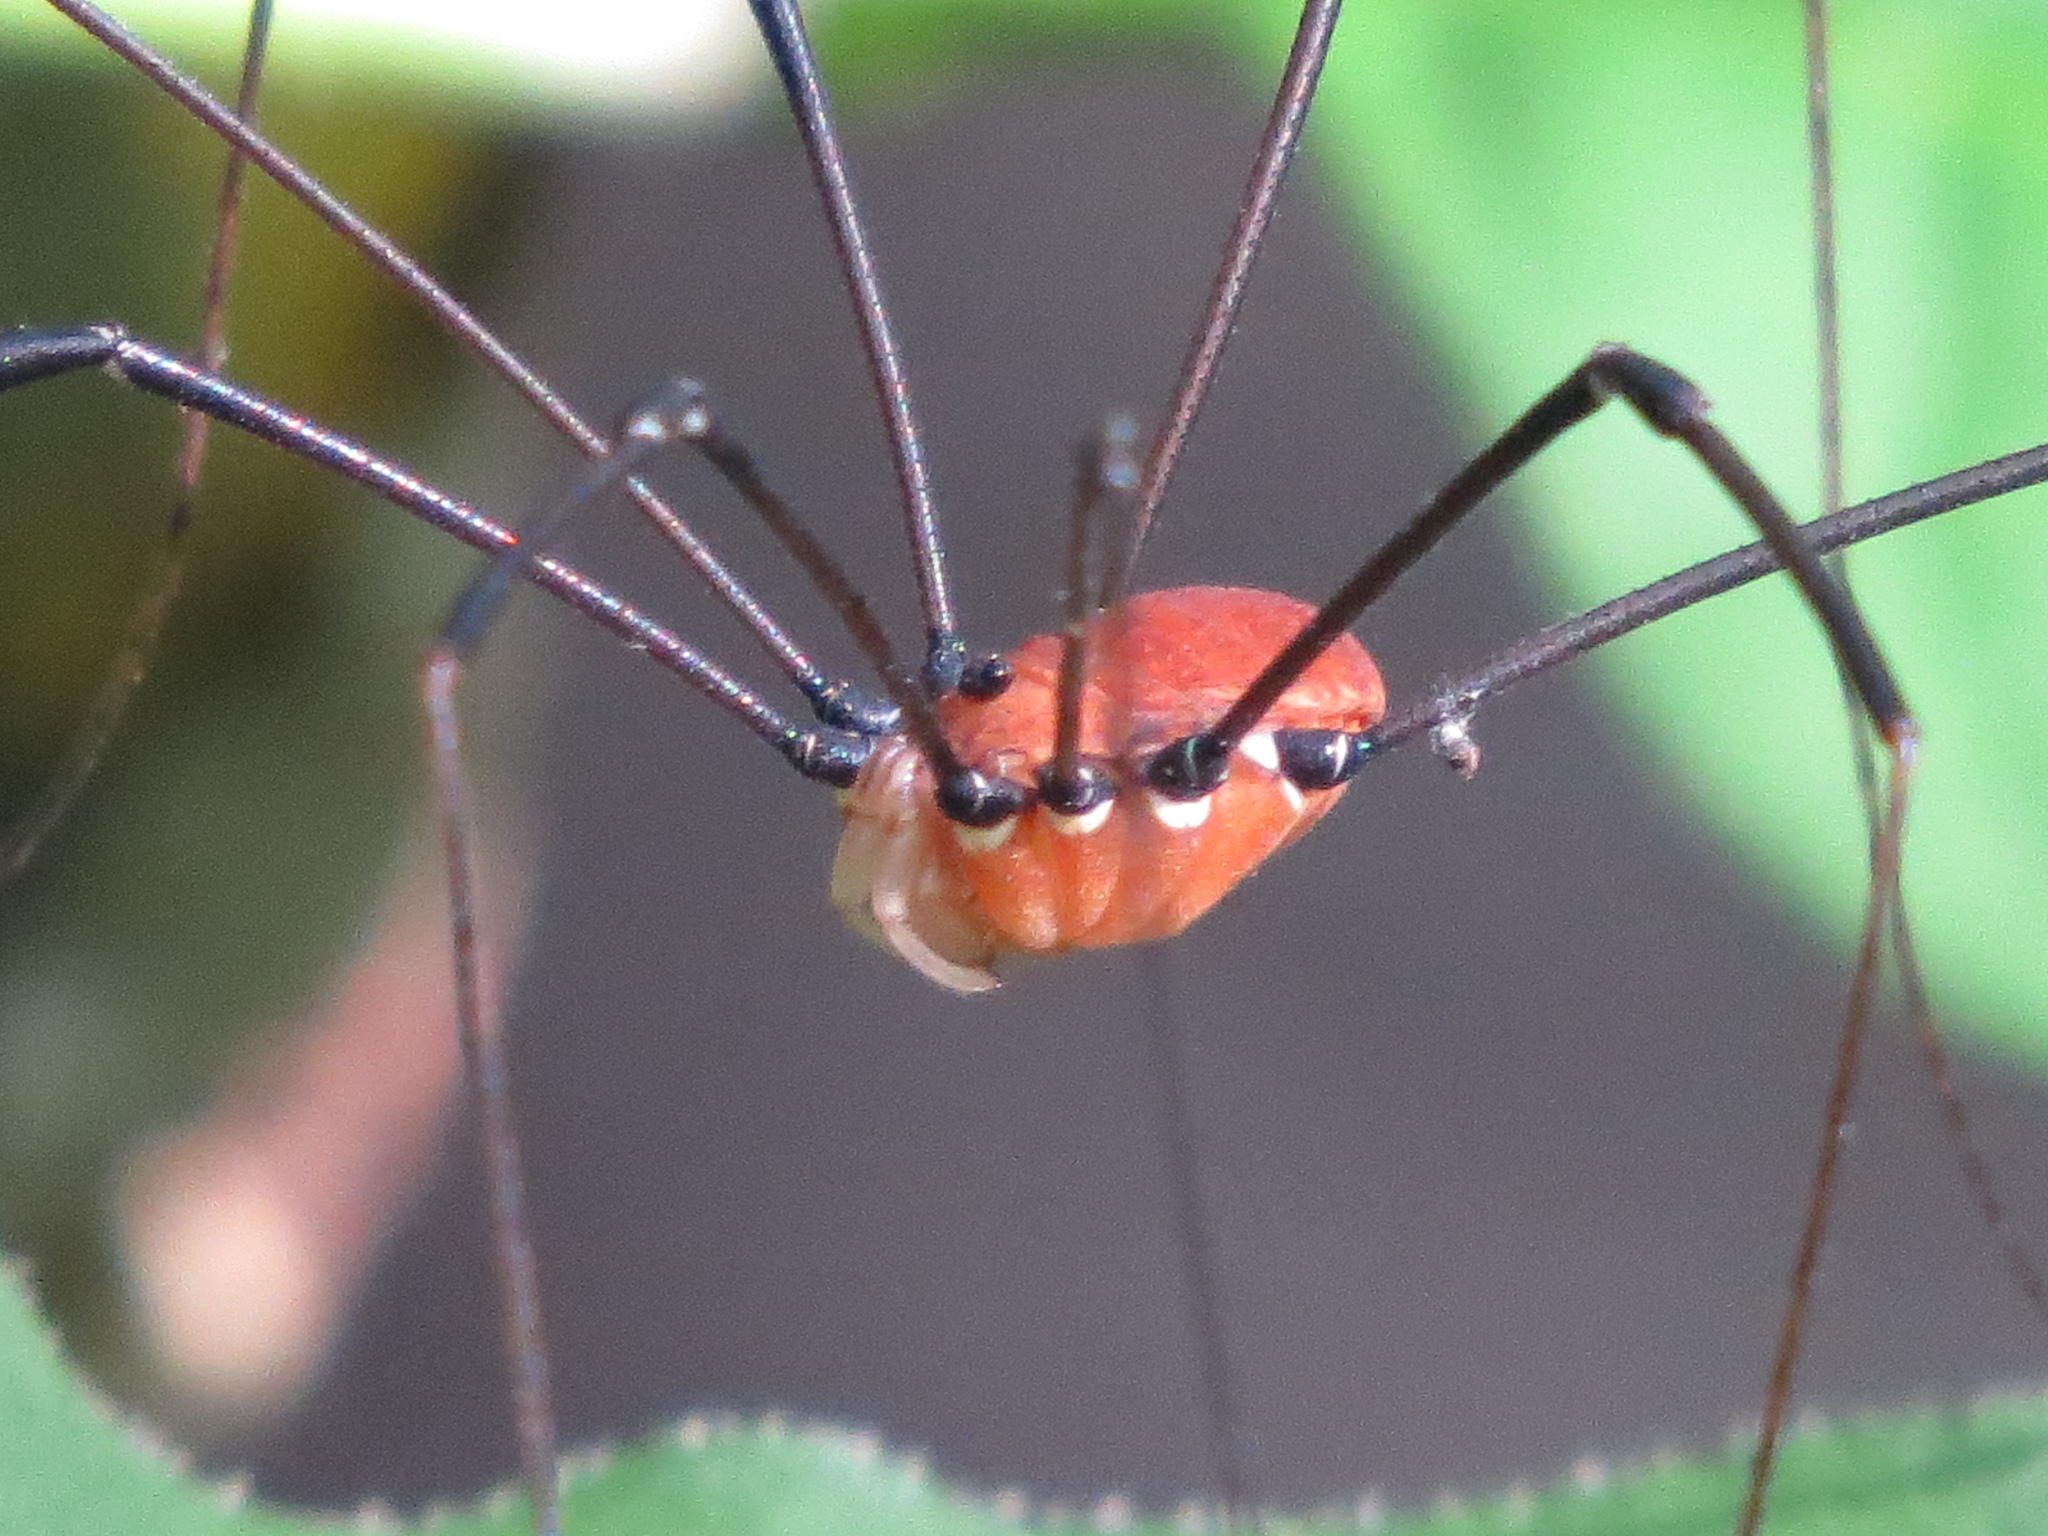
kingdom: Animalia
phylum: Arthropoda
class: Arachnida
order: Opiliones
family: Sclerosomatidae
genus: Leiobunum
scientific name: Leiobunum verrucosum
